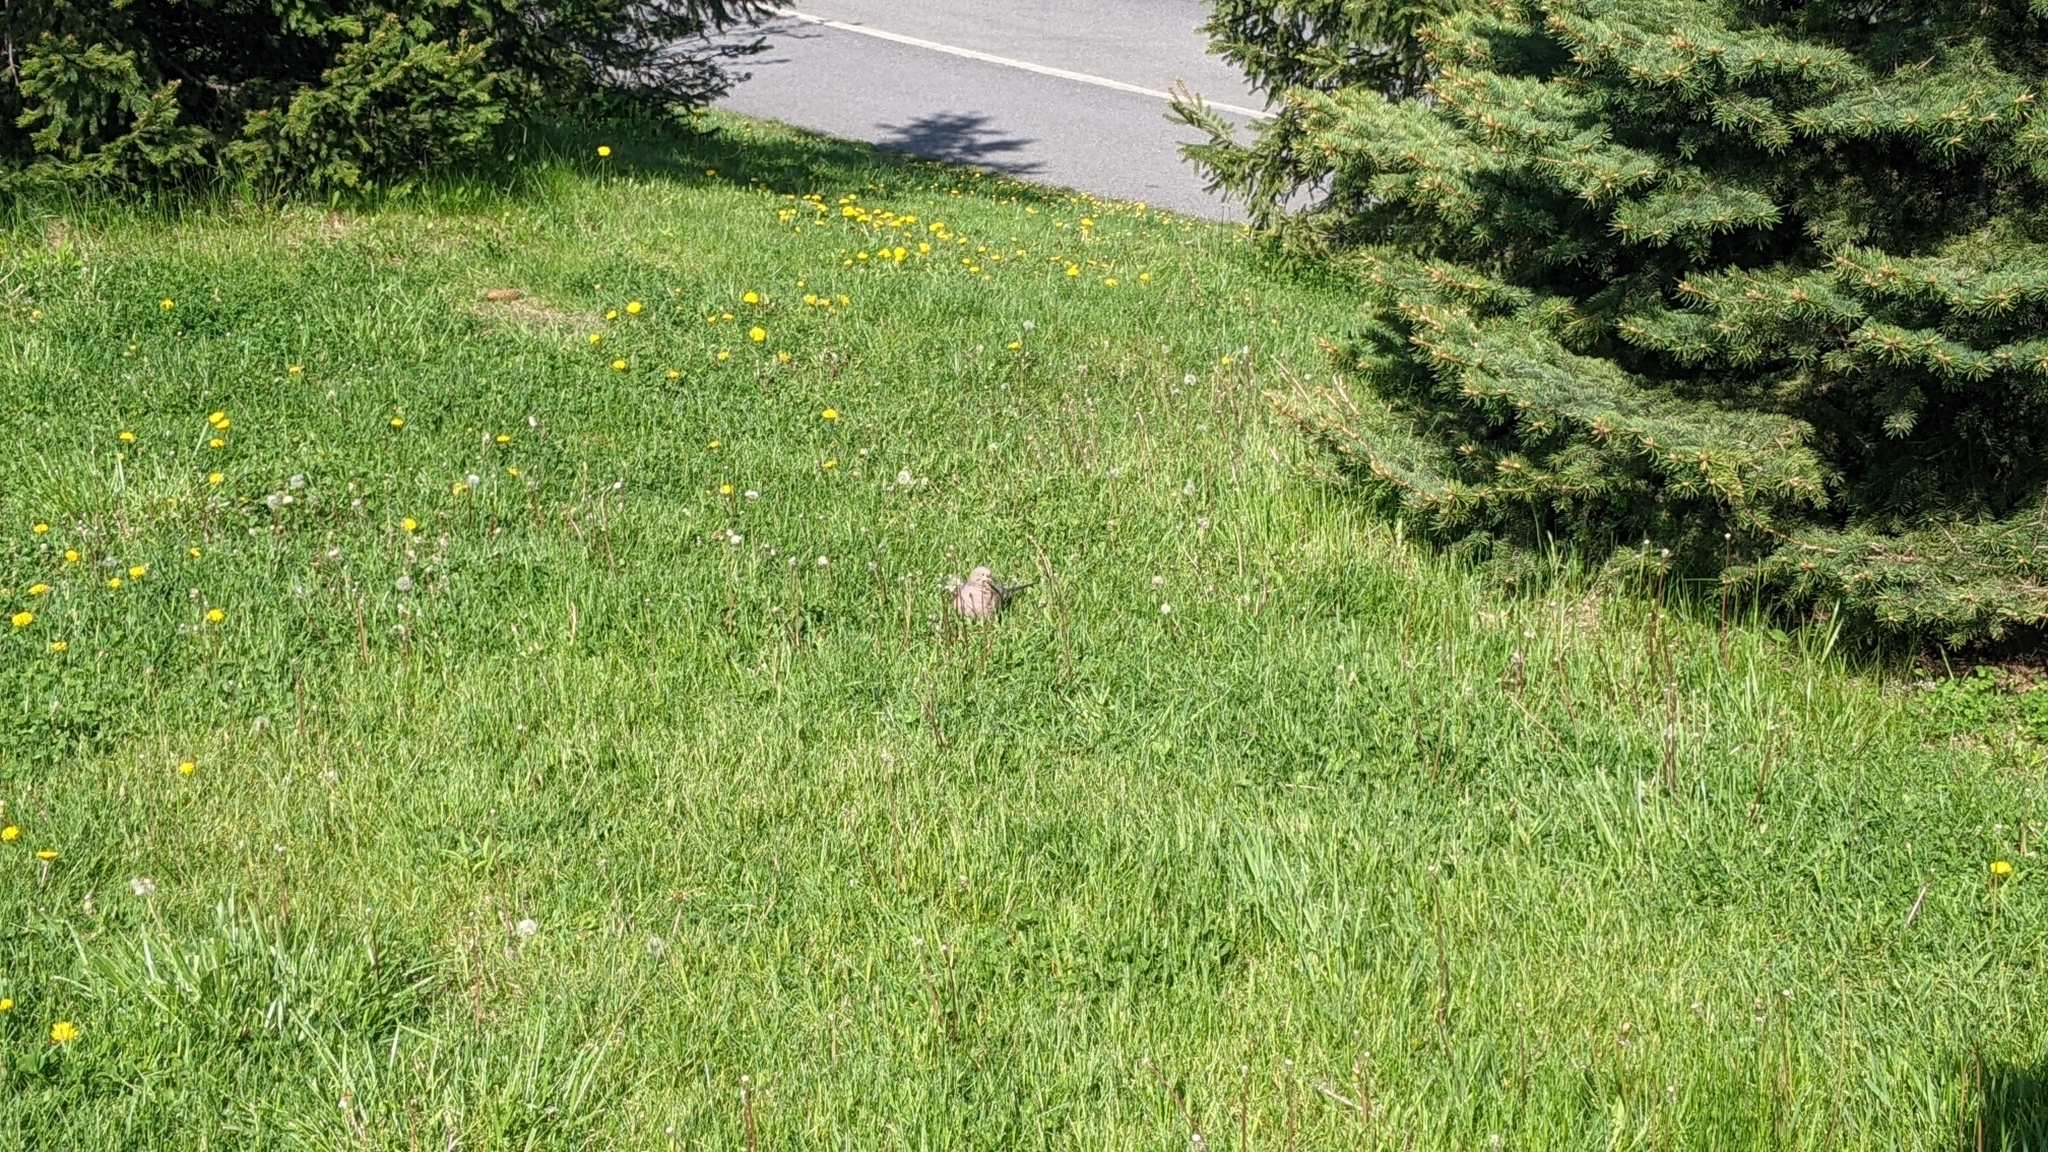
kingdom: Animalia
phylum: Chordata
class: Aves
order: Columbiformes
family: Columbidae
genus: Zenaida
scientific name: Zenaida macroura
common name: Mourning dove
